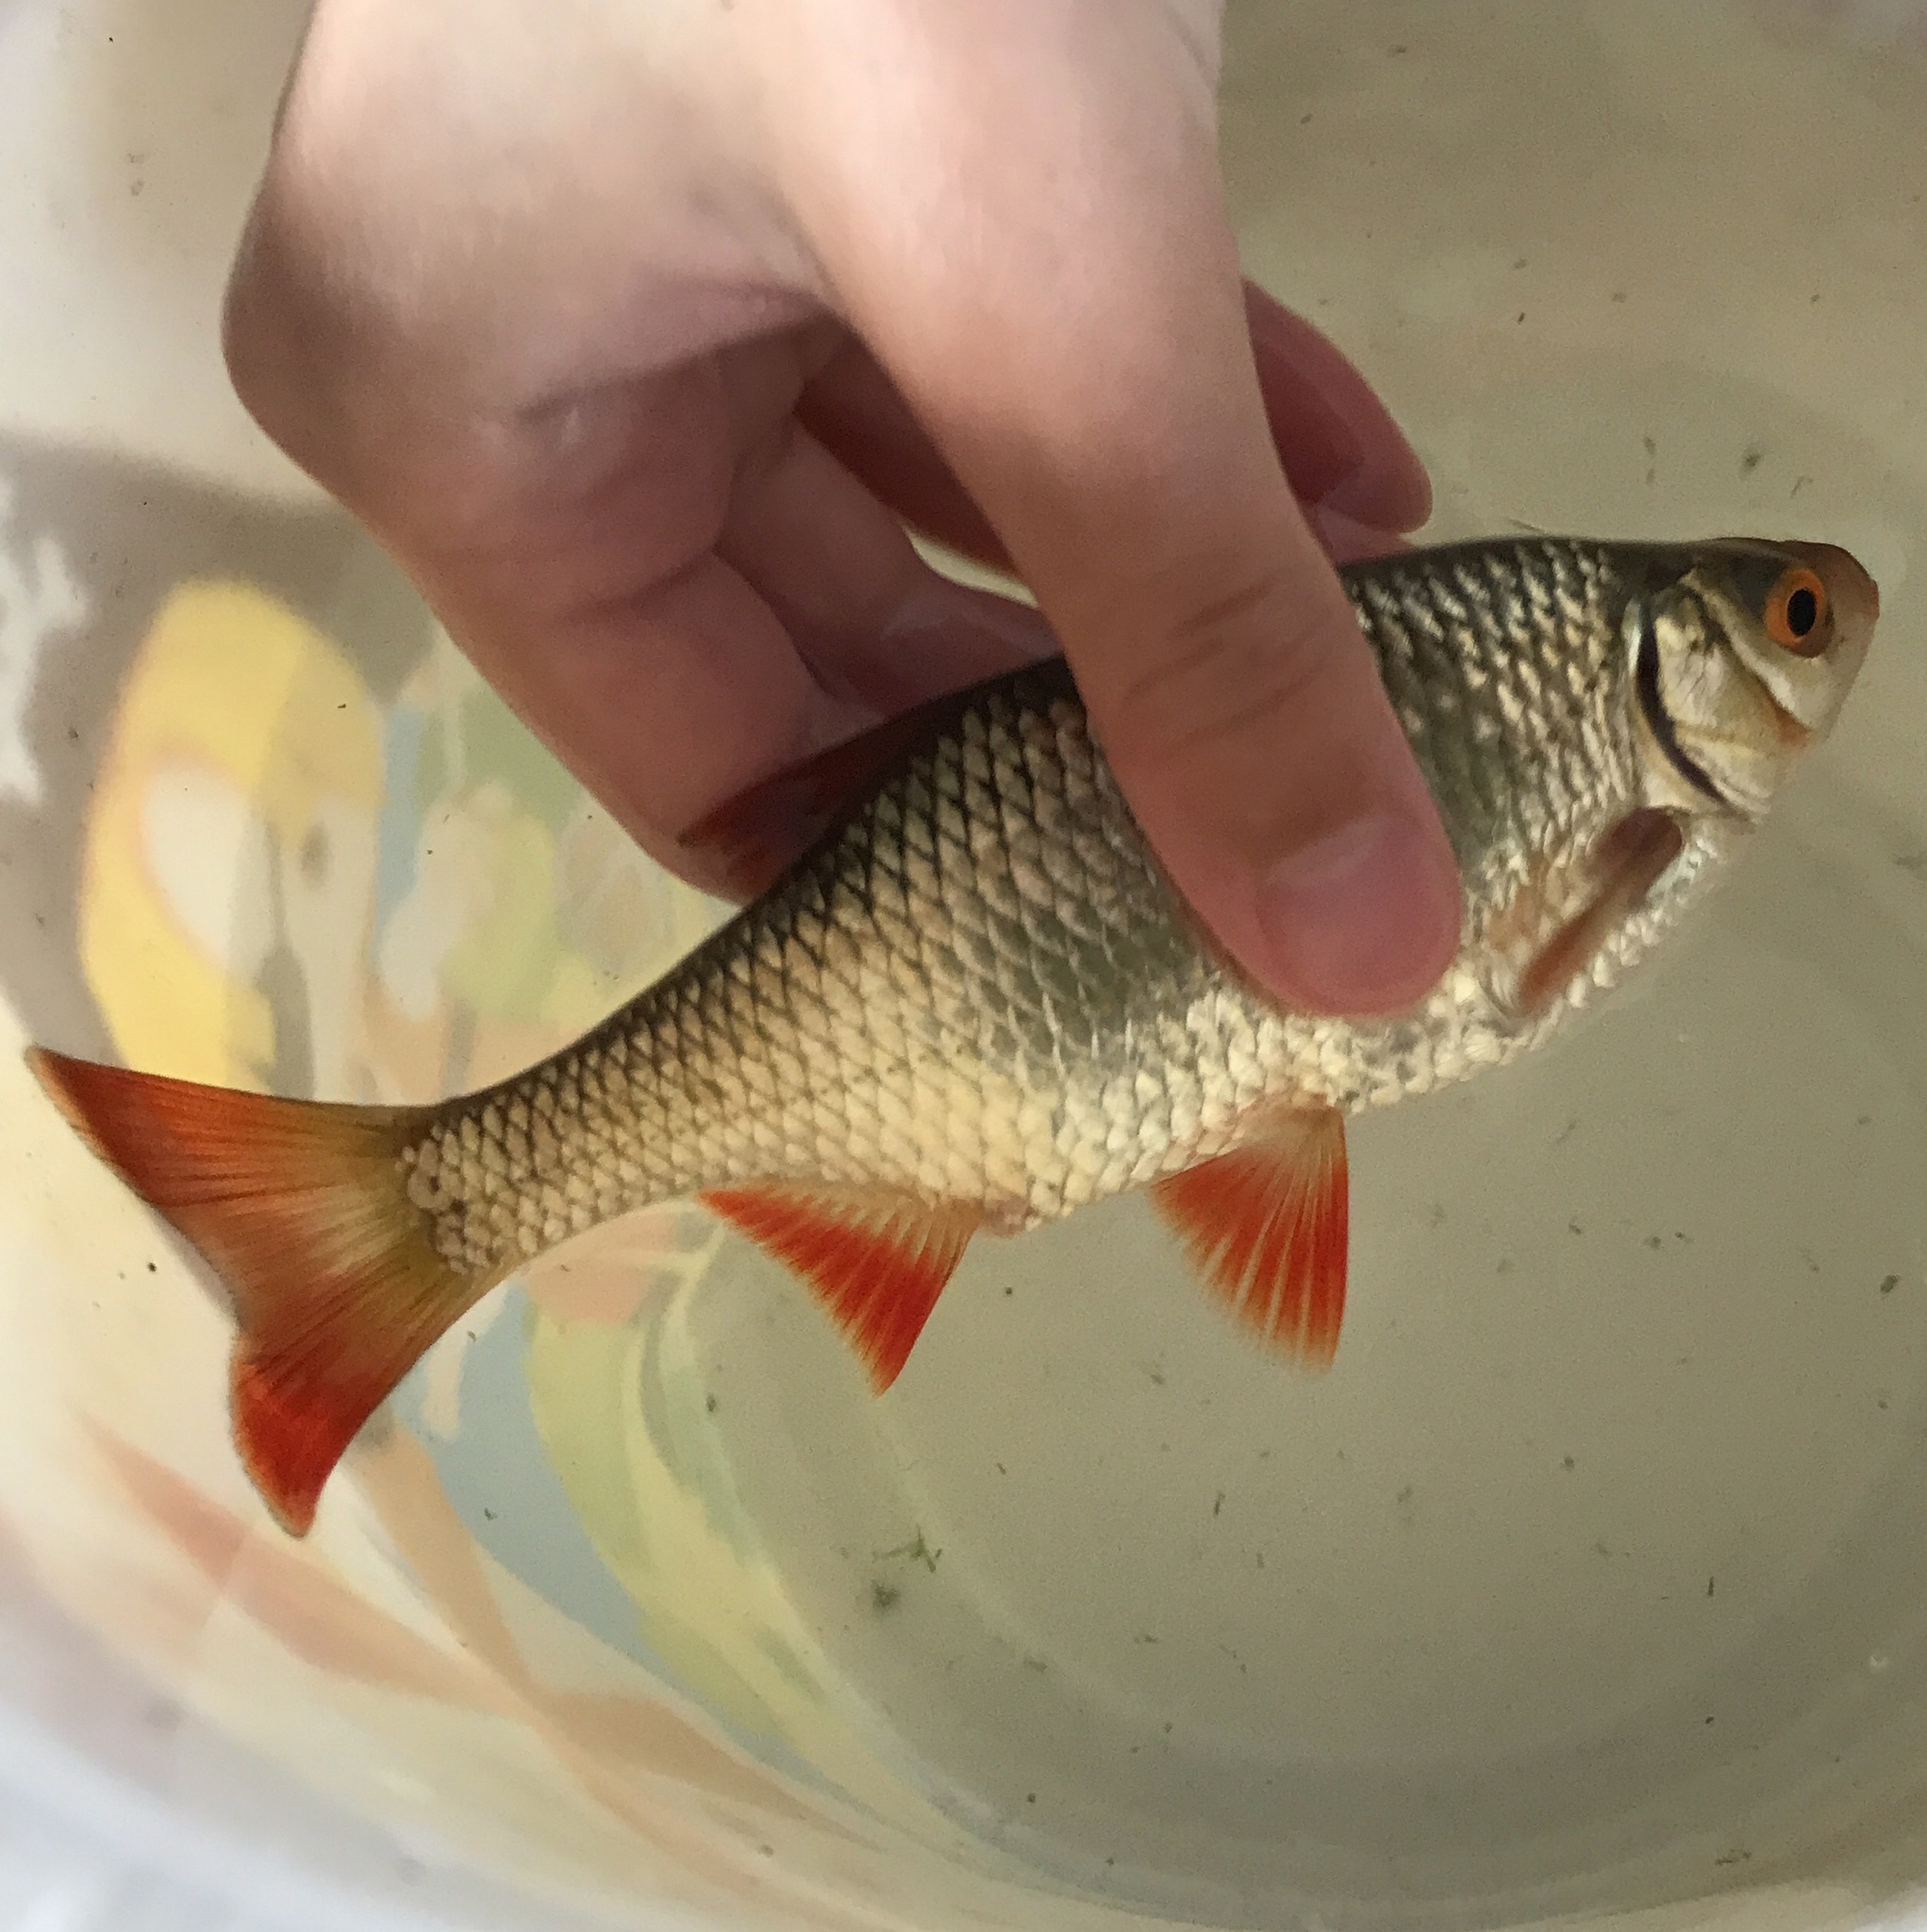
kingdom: Animalia
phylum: Chordata
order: Cypriniformes
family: Cyprinidae
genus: Scardinius
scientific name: Scardinius erythrophthalmus
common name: Rudd
